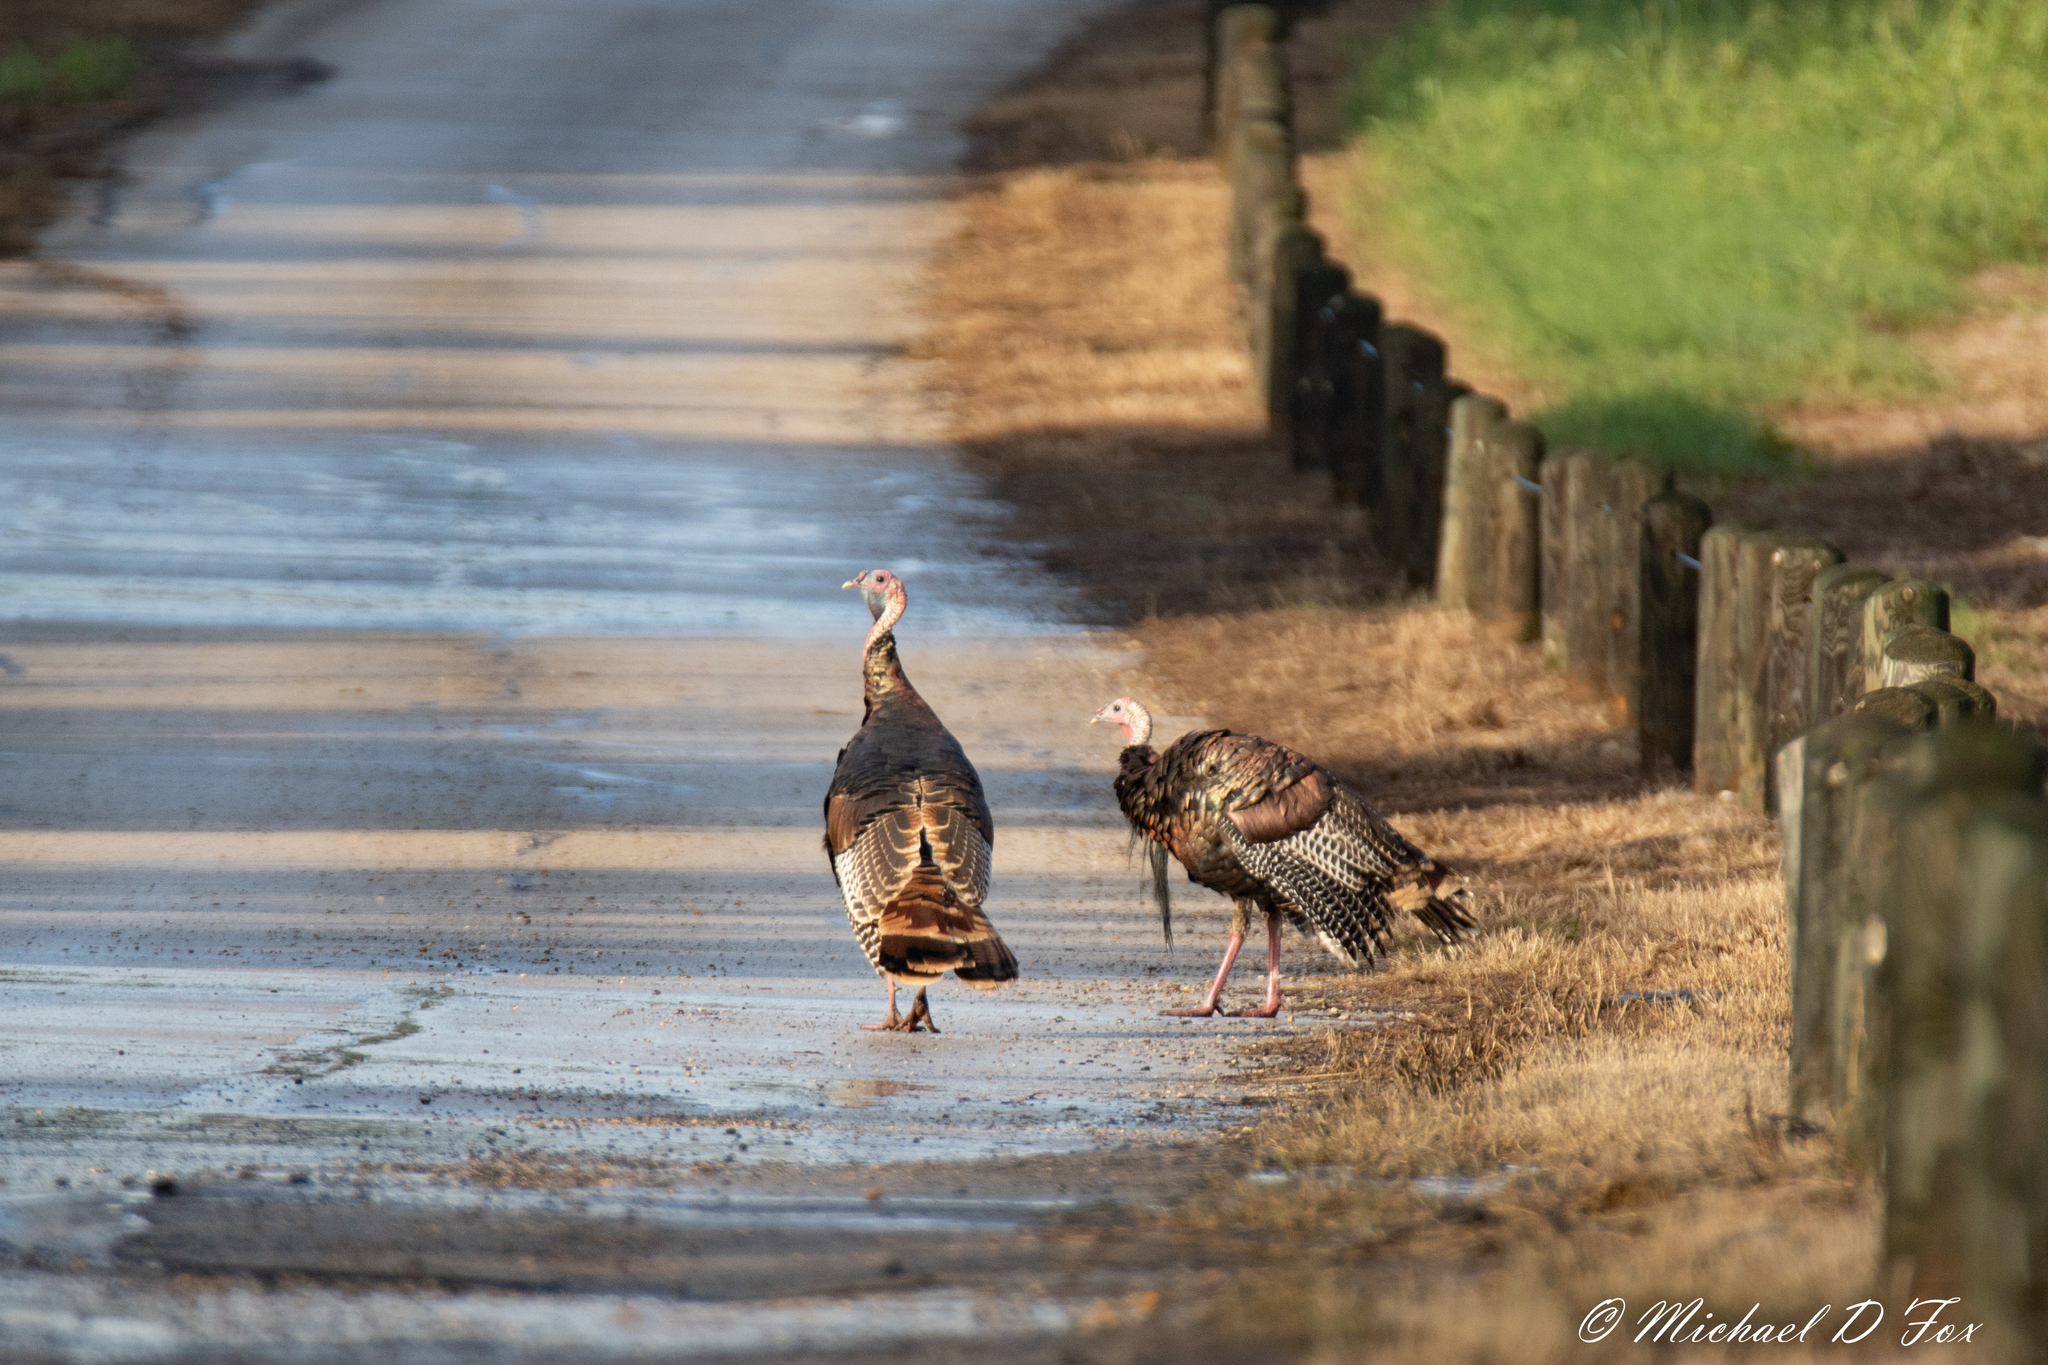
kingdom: Animalia
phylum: Chordata
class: Aves
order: Galliformes
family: Phasianidae
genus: Meleagris
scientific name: Meleagris gallopavo
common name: Wild turkey
